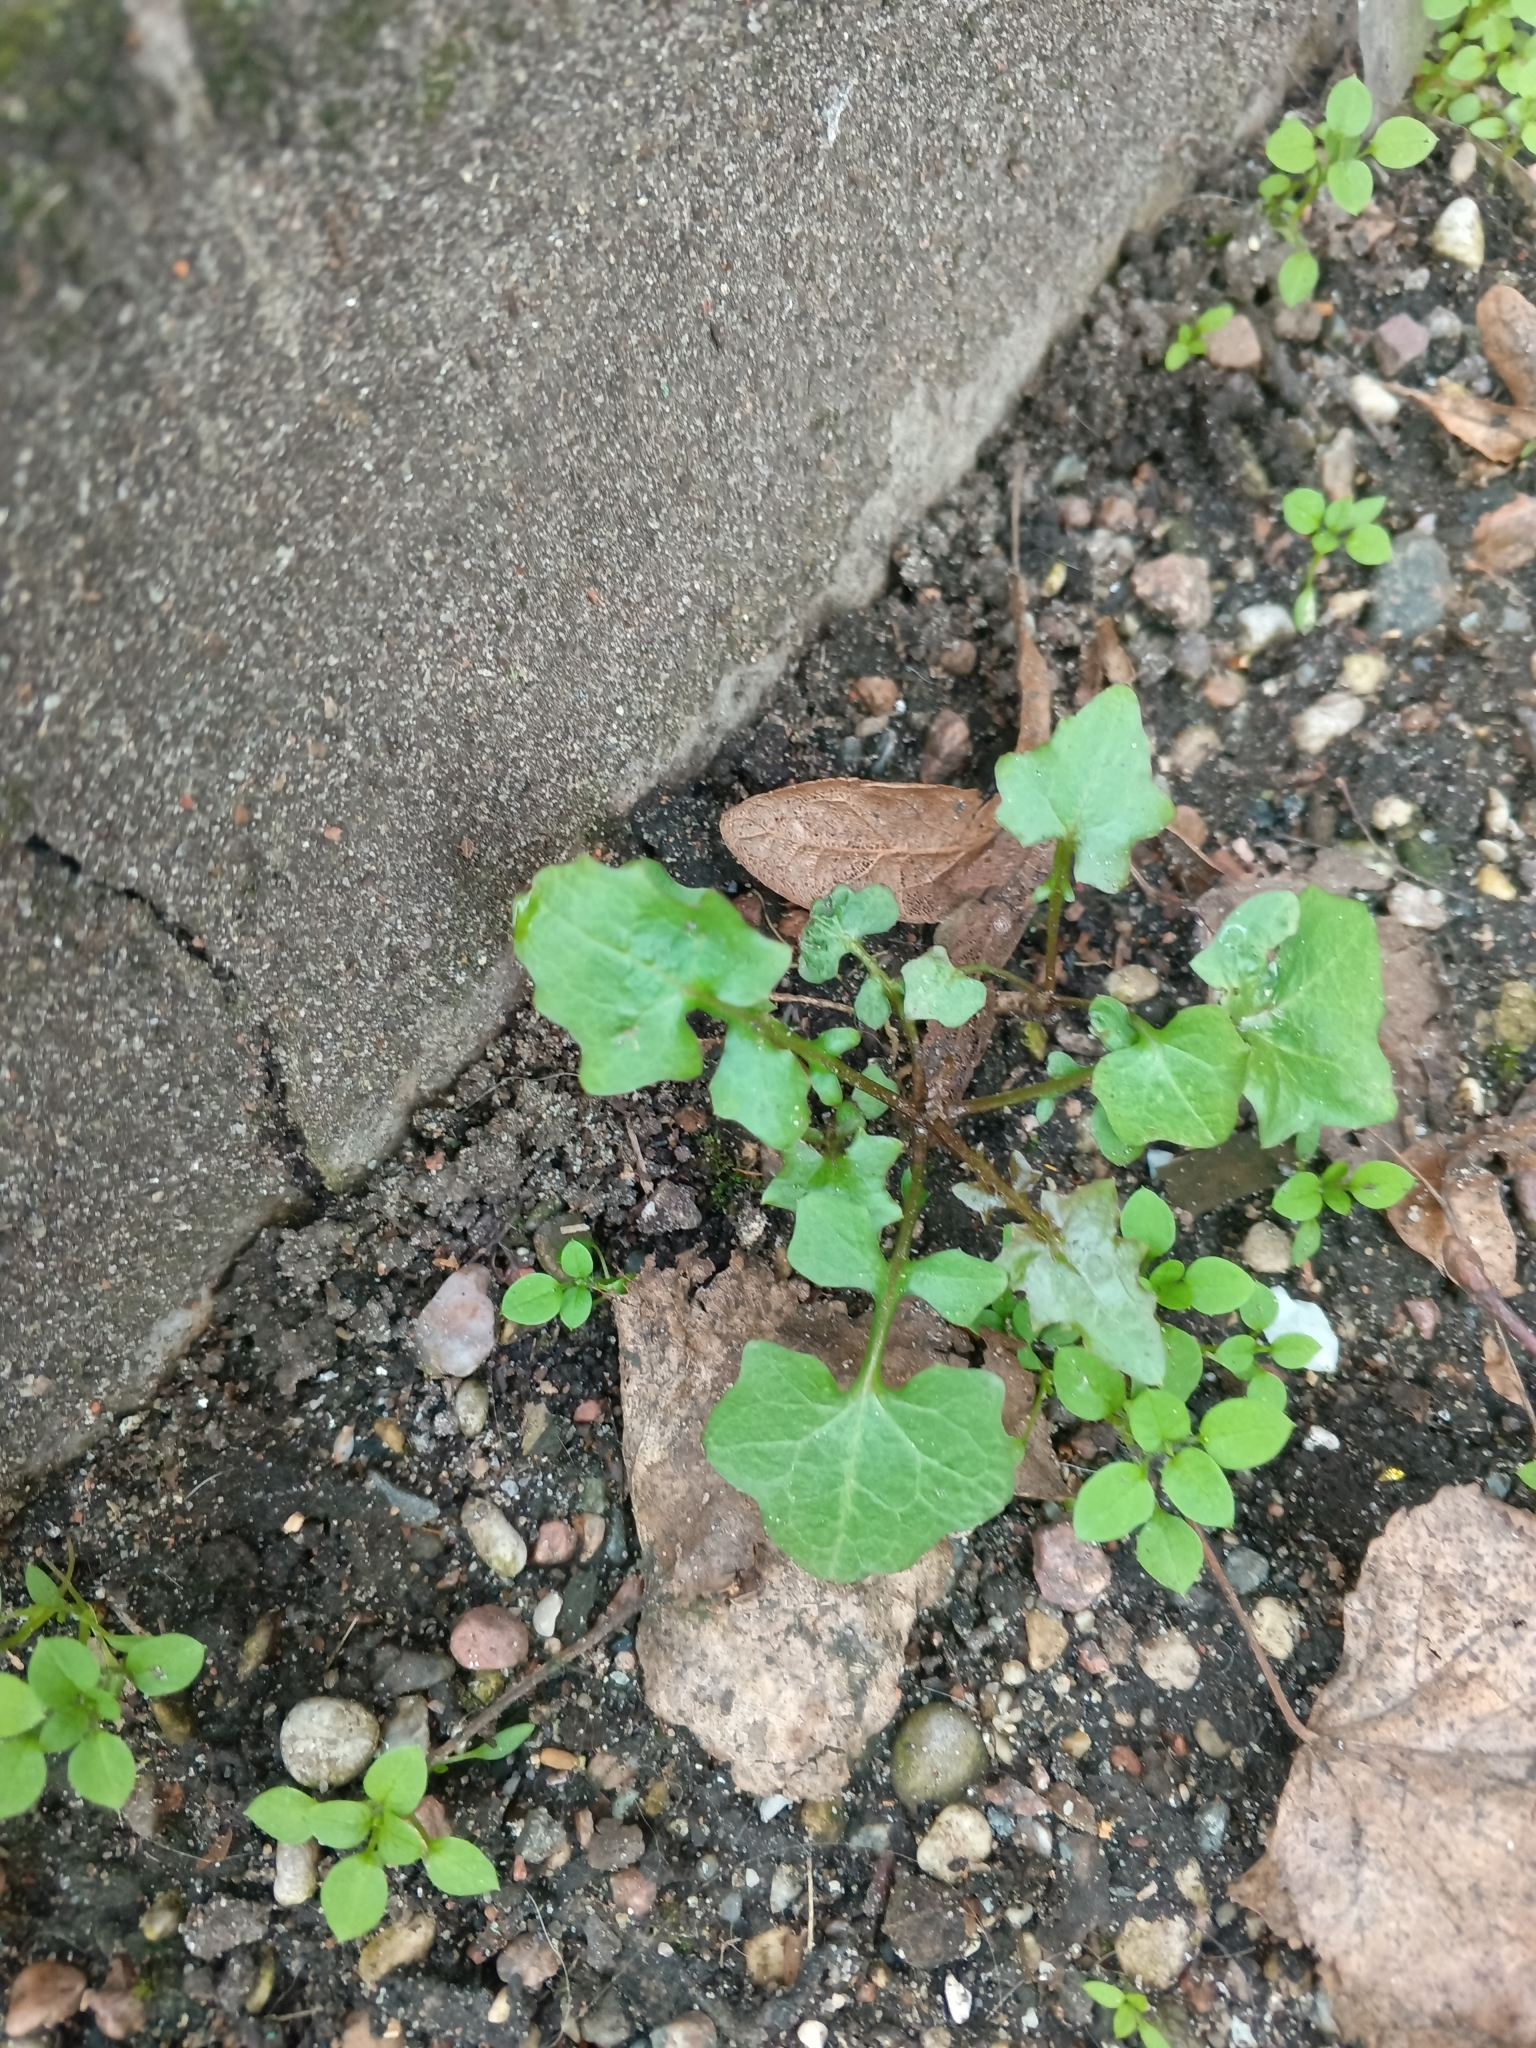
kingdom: Plantae
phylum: Tracheophyta
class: Magnoliopsida
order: Asterales
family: Asteraceae
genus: Mycelis
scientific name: Mycelis muralis
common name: Wall lettuce
